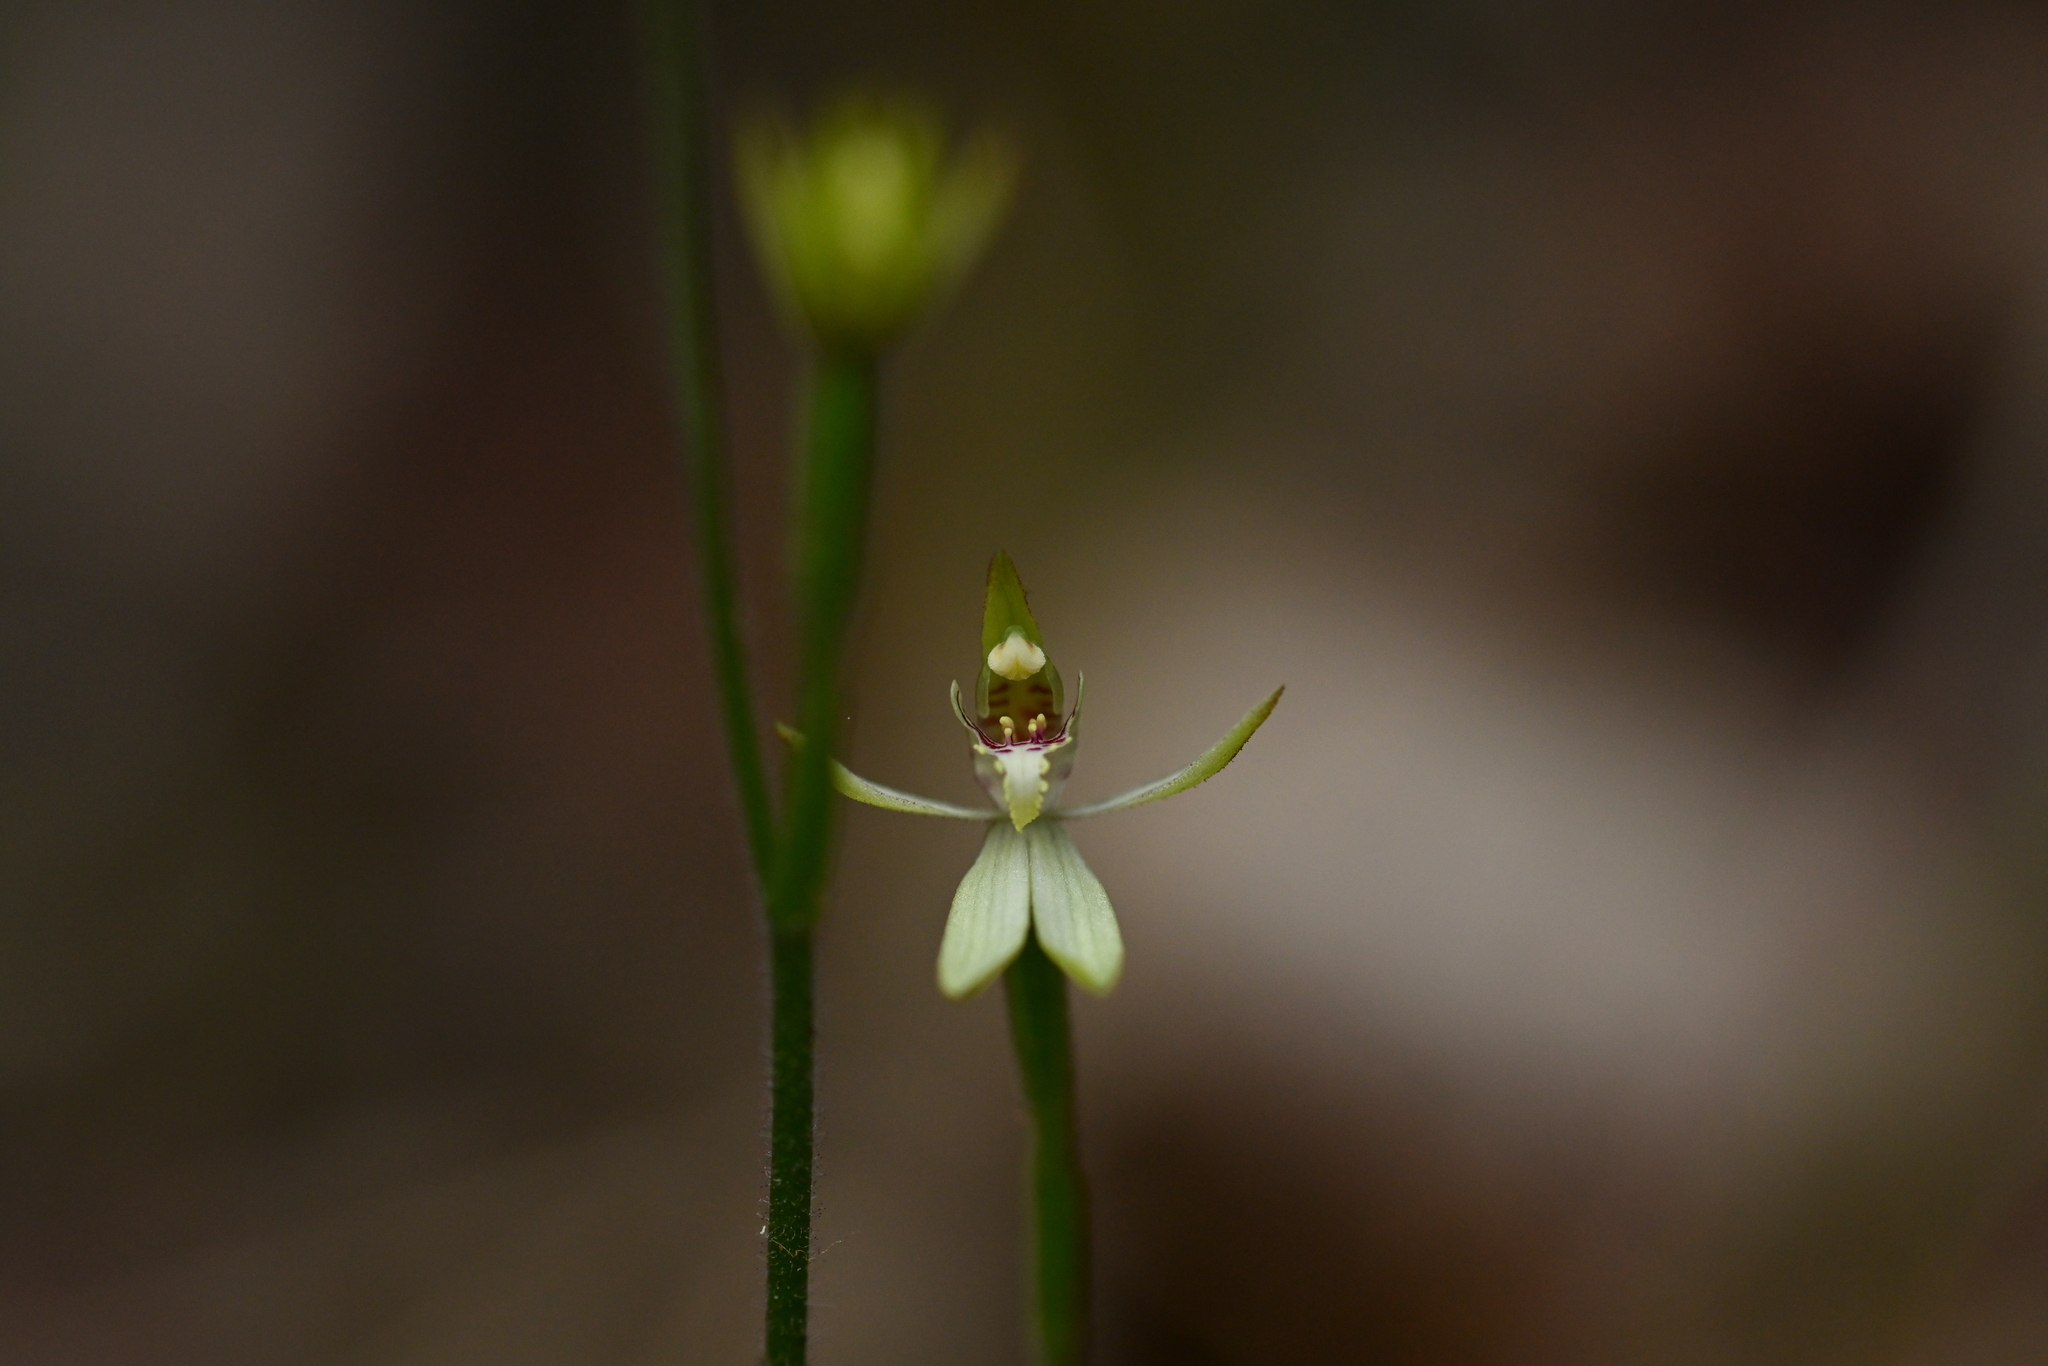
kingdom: Plantae
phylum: Tracheophyta
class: Liliopsida
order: Asparagales
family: Orchidaceae
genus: Caladenia
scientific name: Caladenia chlorostyla
